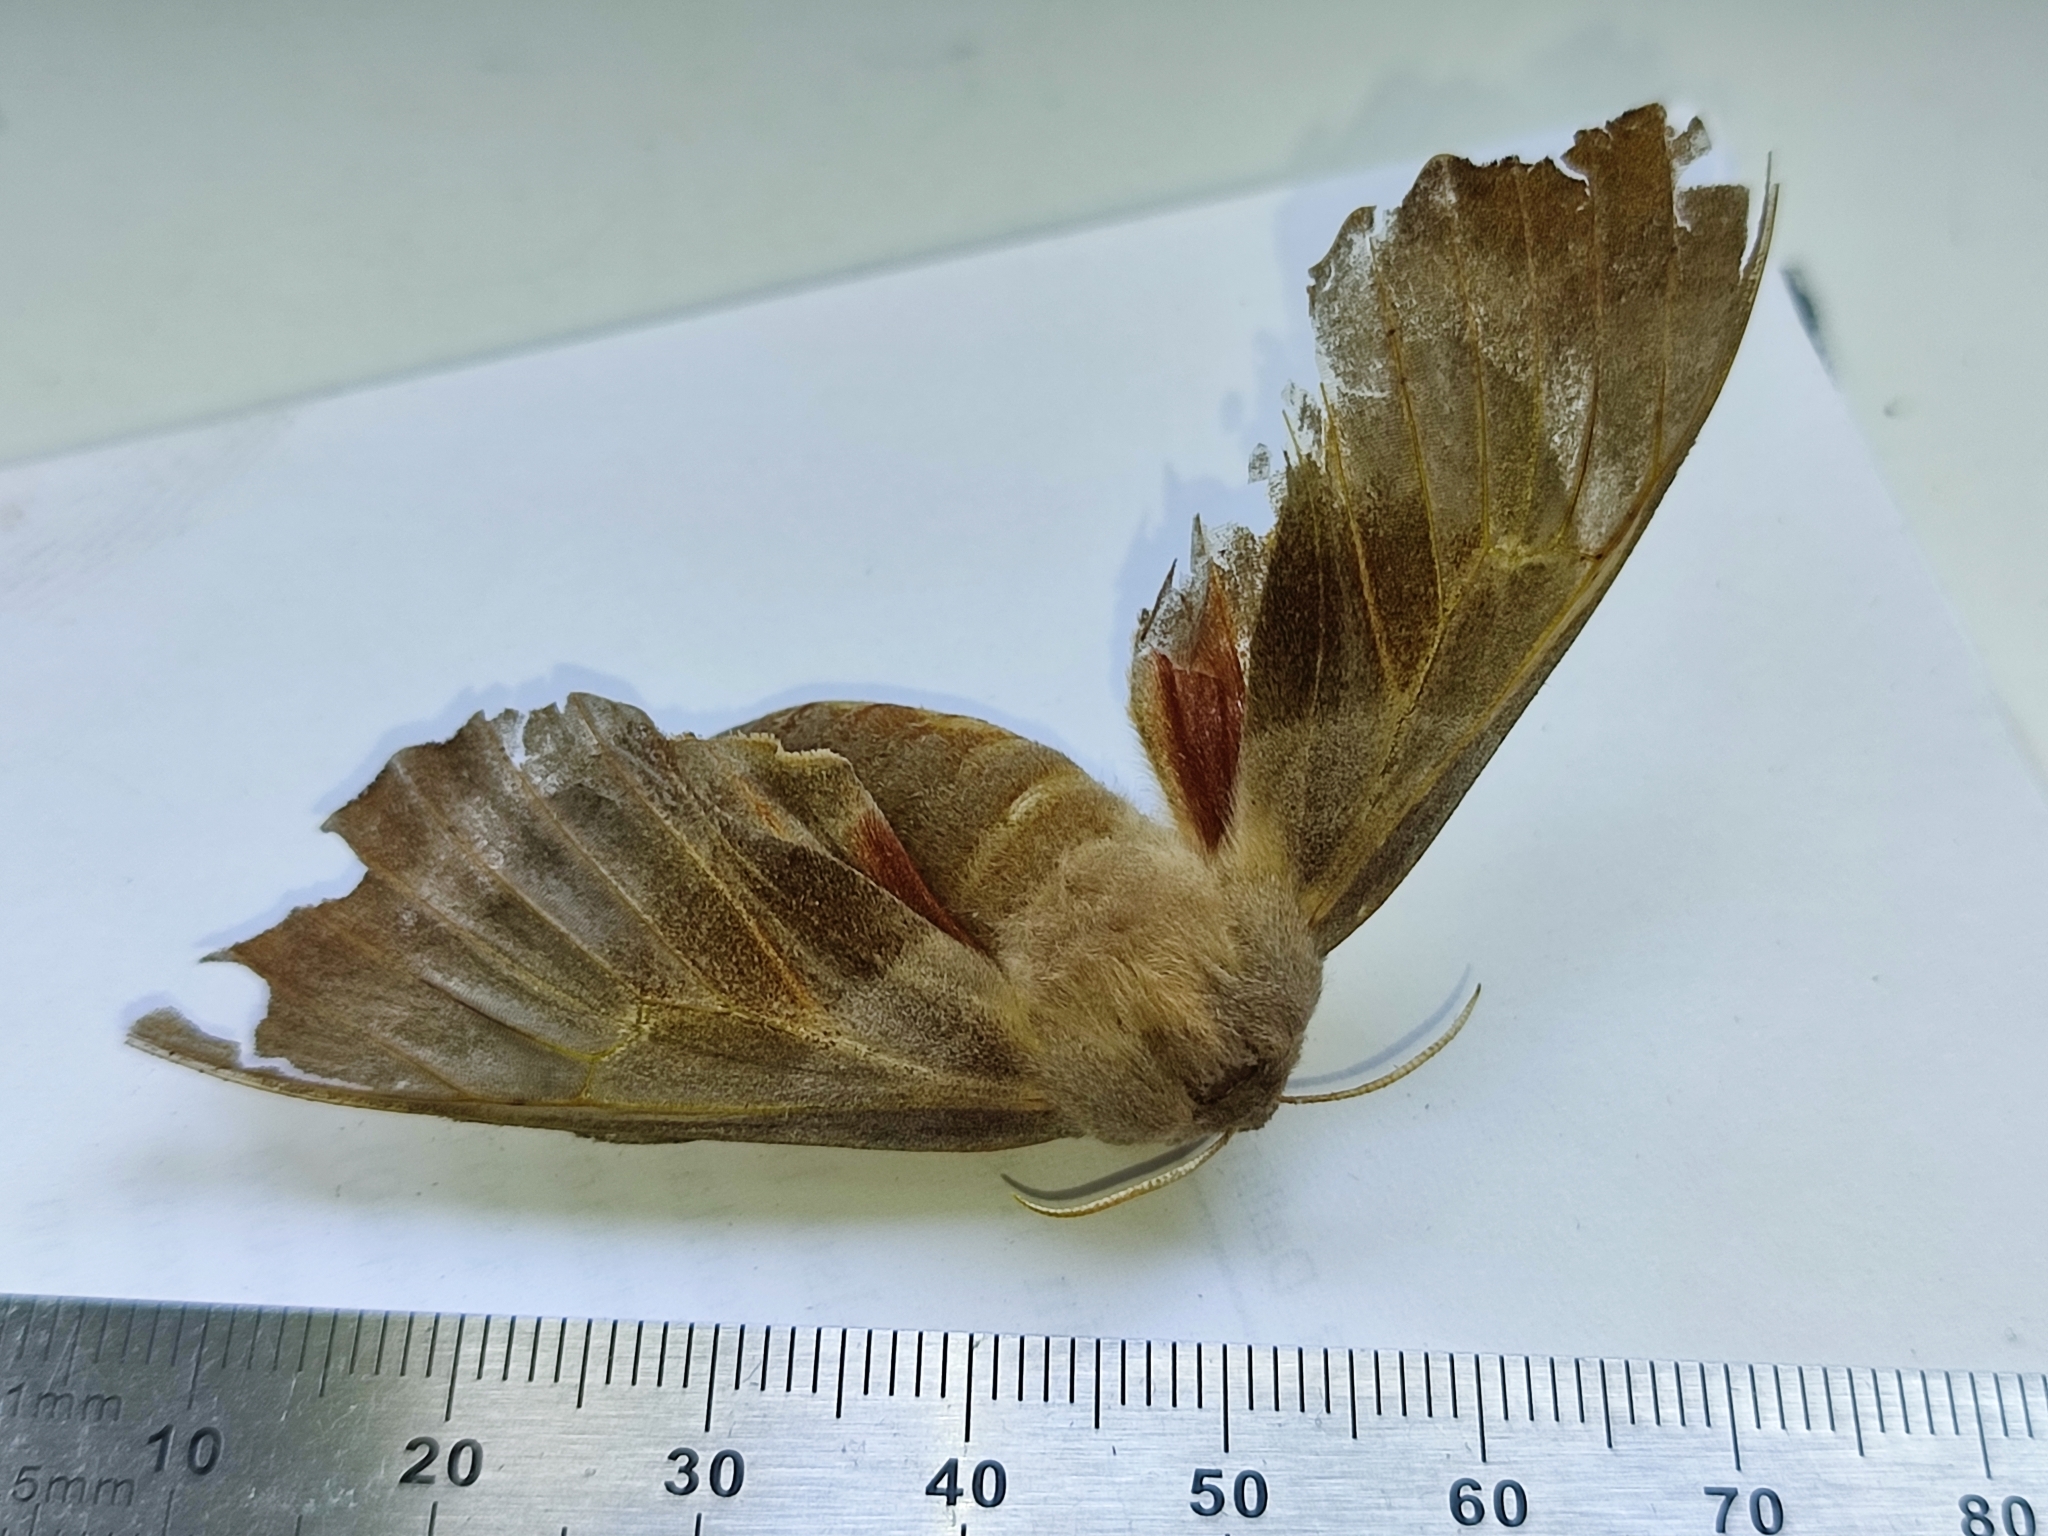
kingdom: Animalia
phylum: Arthropoda
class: Insecta
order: Lepidoptera
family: Sphingidae
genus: Laothoe
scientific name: Laothoe populi
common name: Poplar hawk-moth
